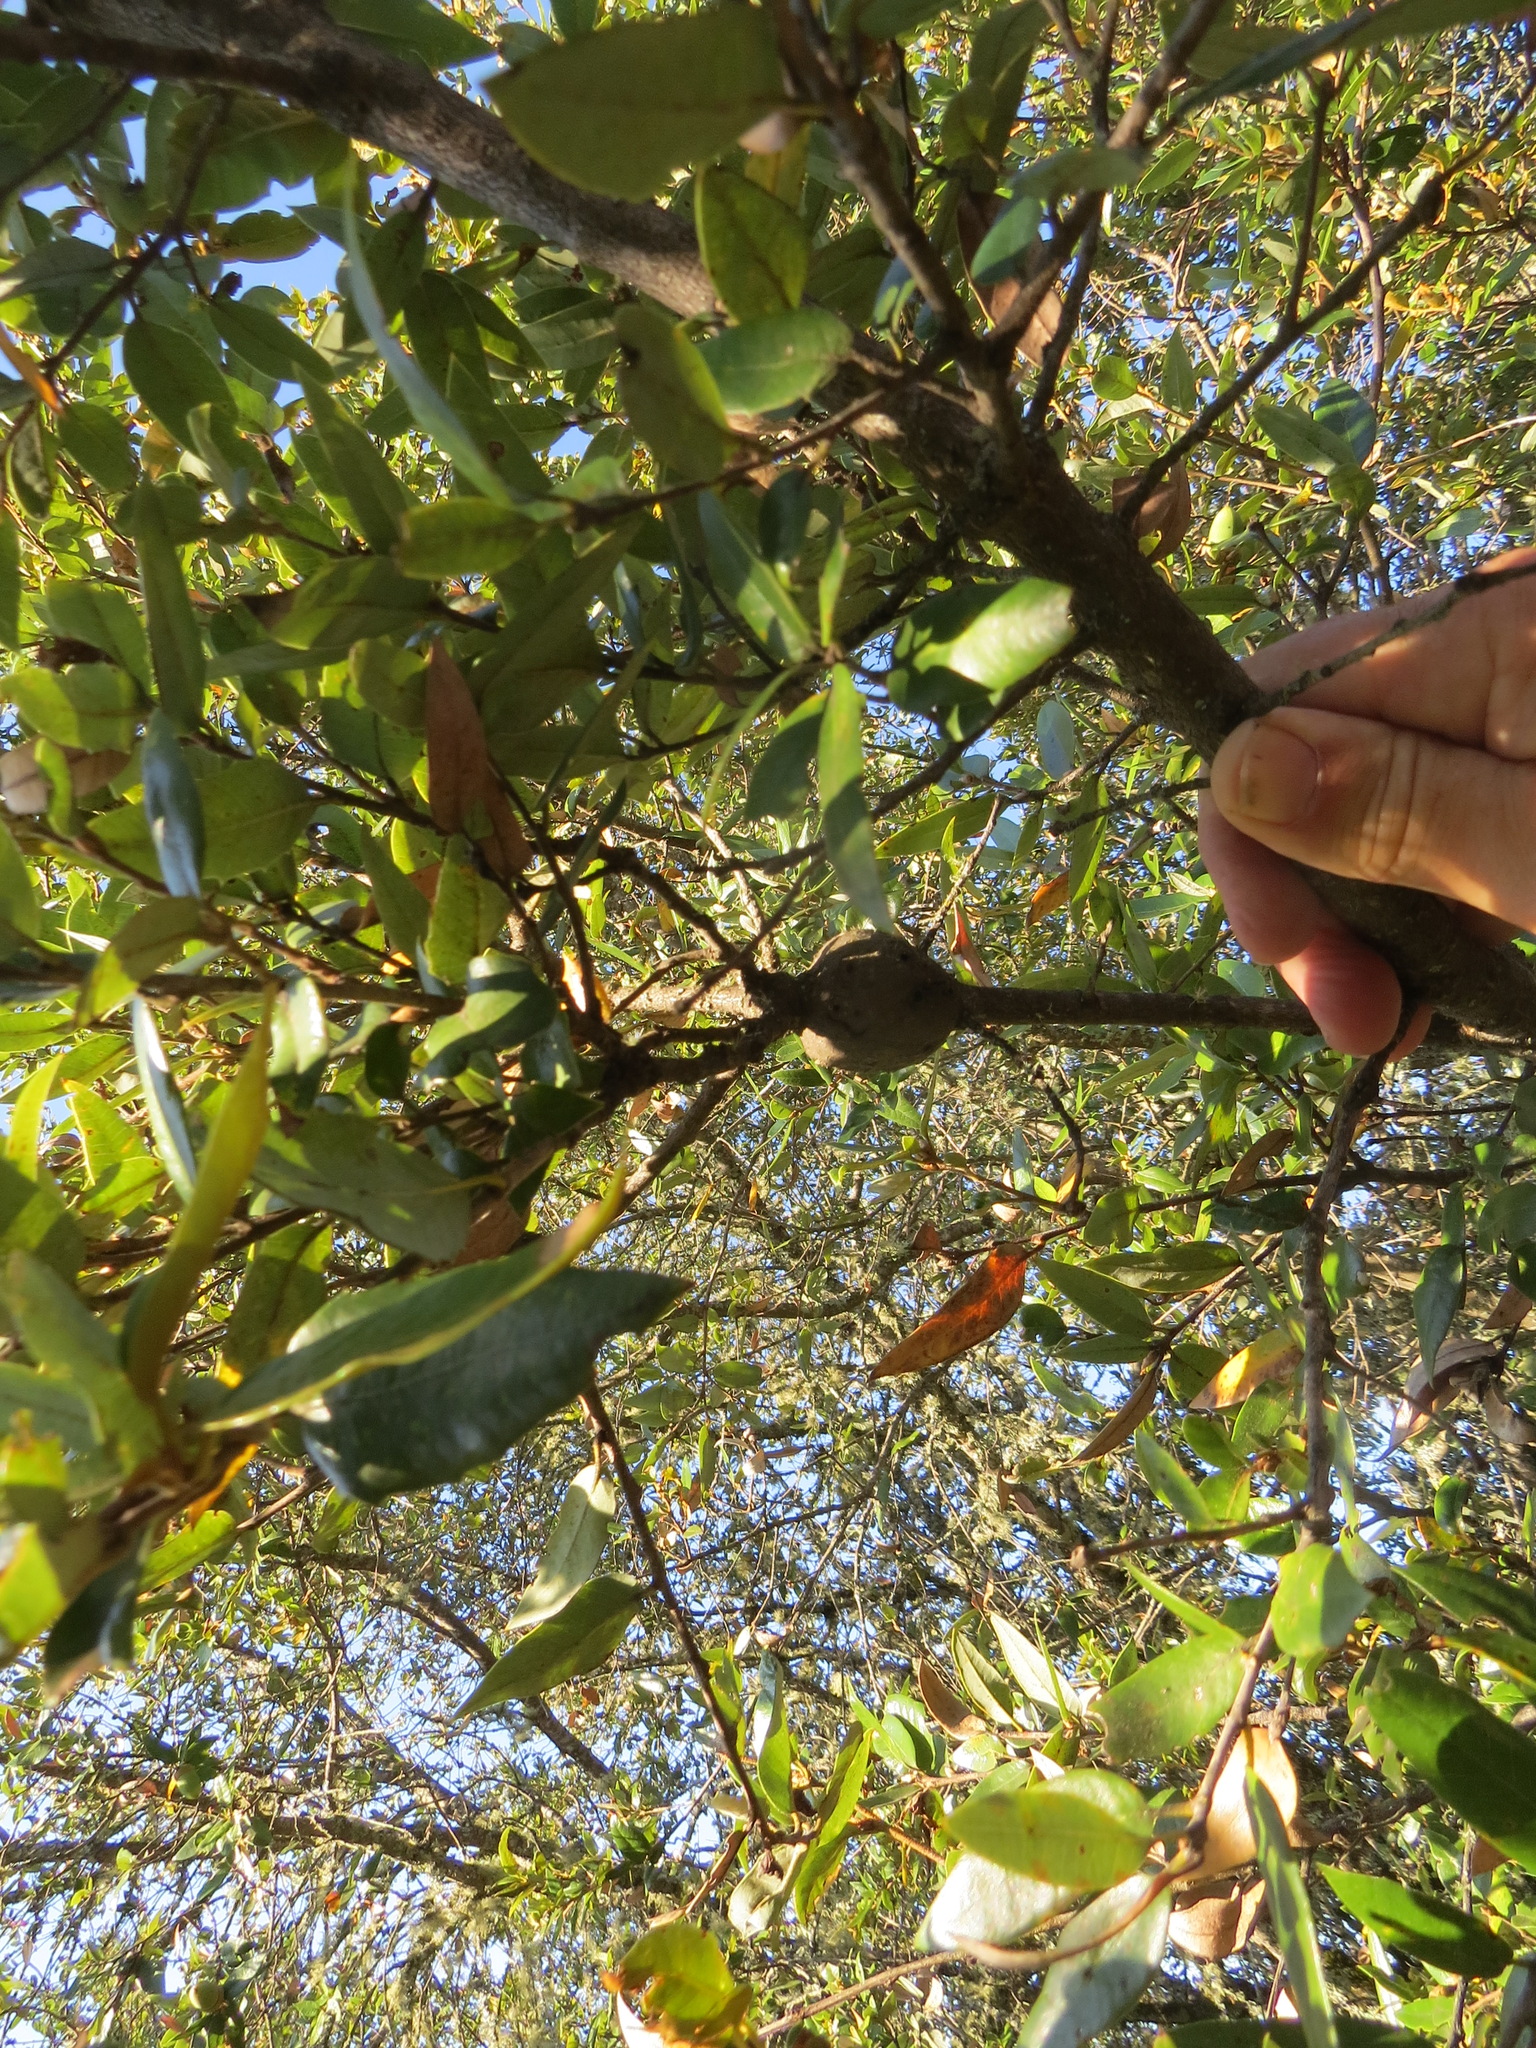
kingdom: Animalia
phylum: Arthropoda
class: Insecta
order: Hymenoptera
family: Cynipidae
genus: Disholcaspis
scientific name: Disholcaspis spectabilis
